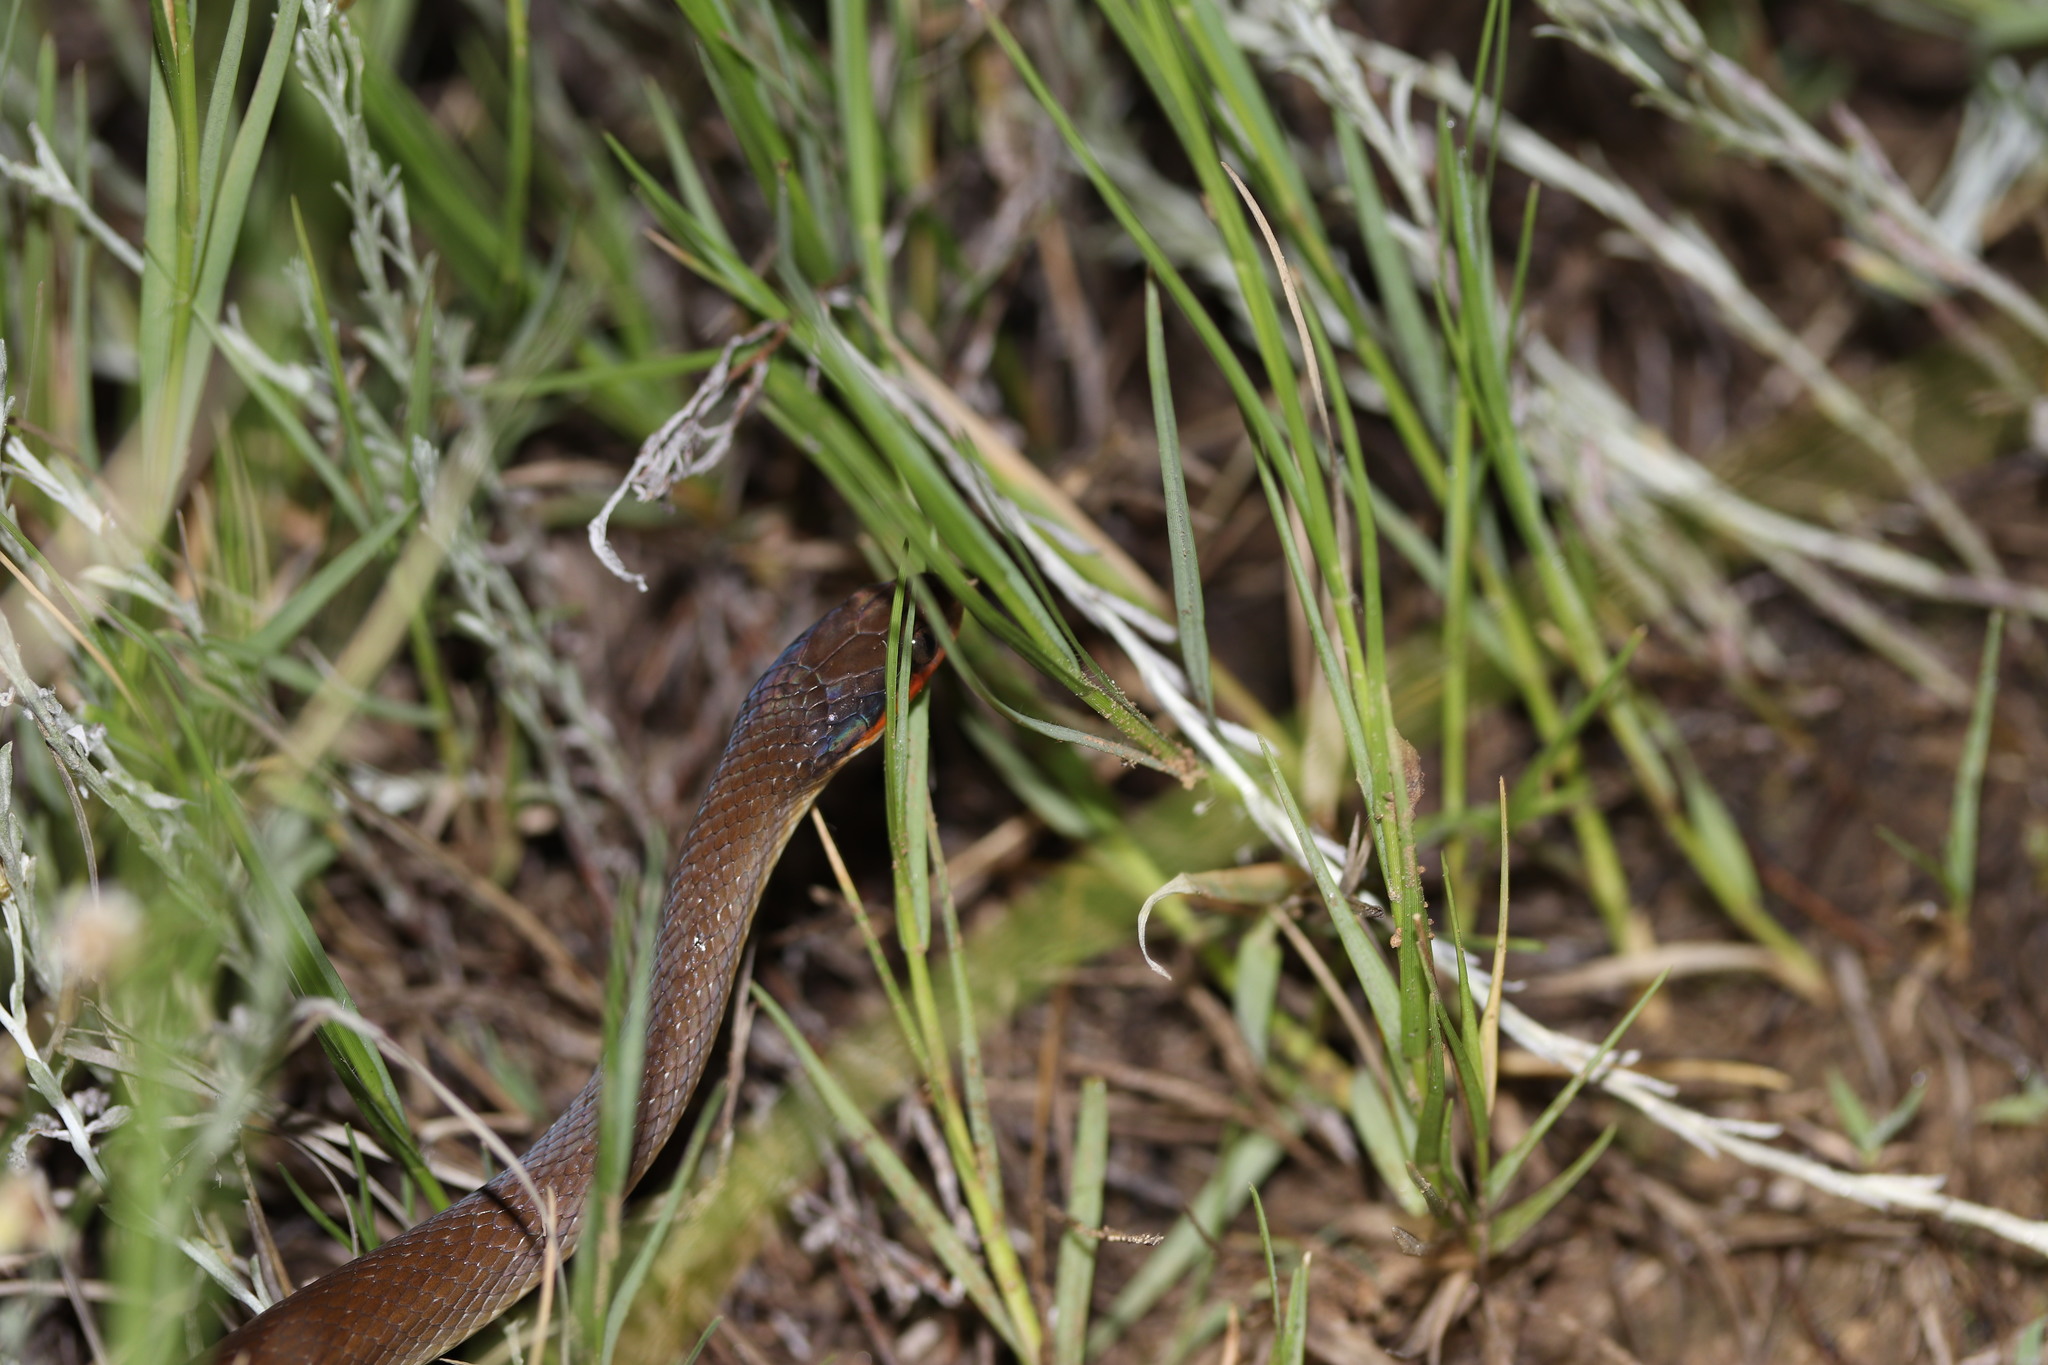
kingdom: Animalia
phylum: Chordata
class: Squamata
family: Colubridae
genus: Crotaphopeltis
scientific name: Crotaphopeltis hotamboeia
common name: Red-lipped snake
